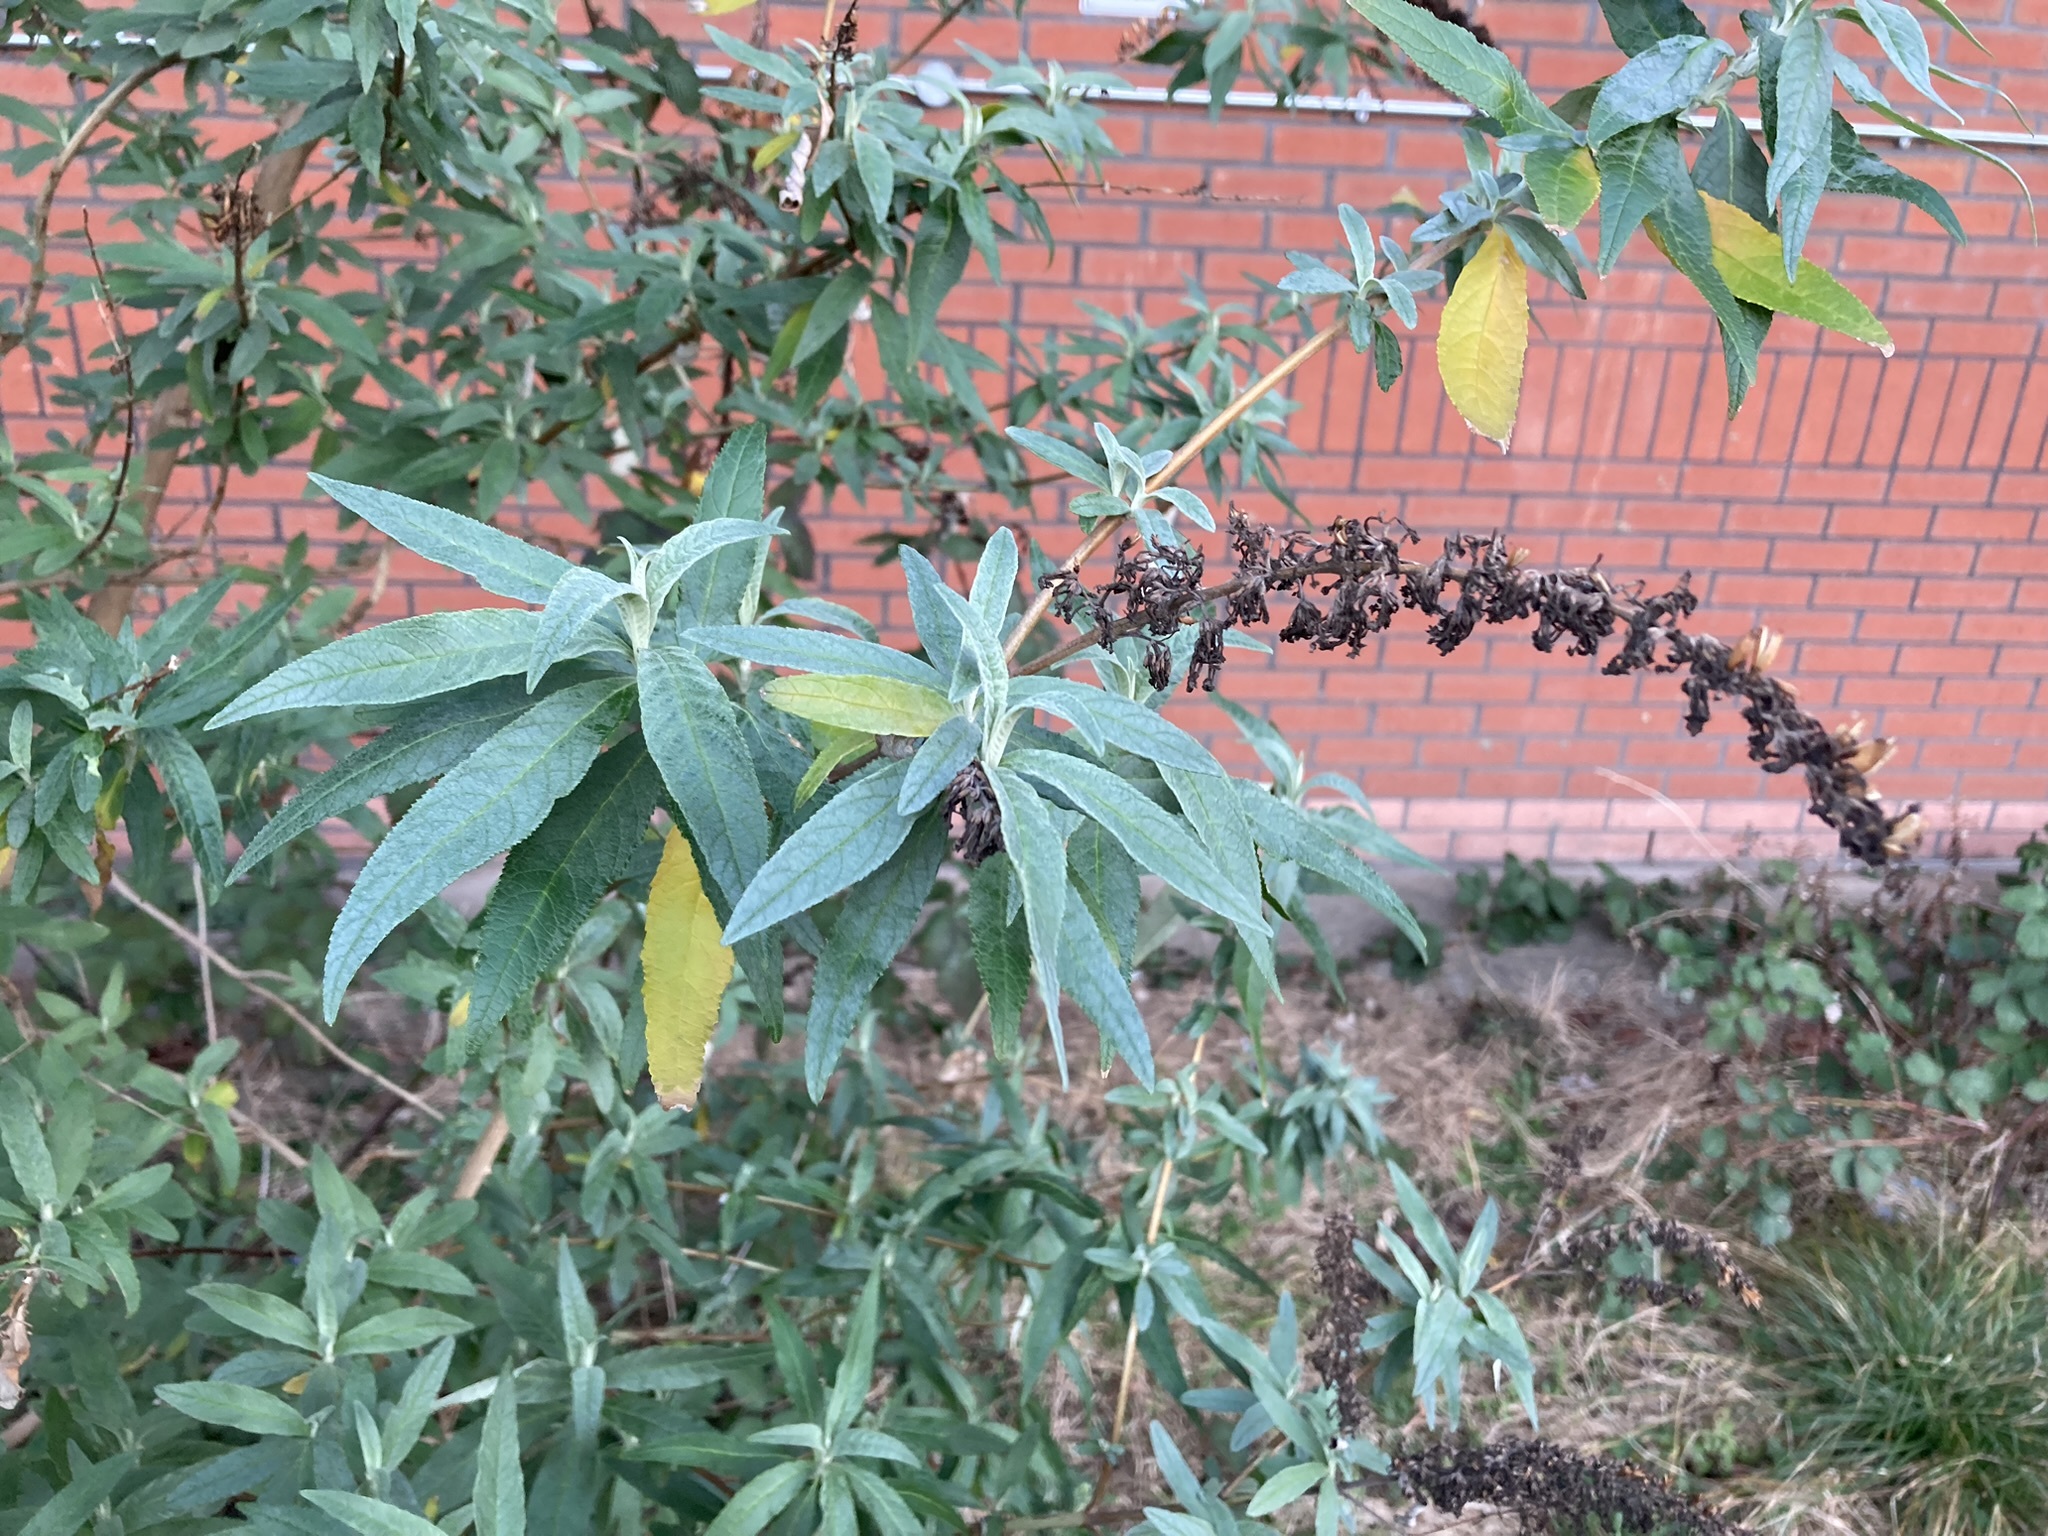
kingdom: Plantae
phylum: Tracheophyta
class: Magnoliopsida
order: Lamiales
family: Scrophulariaceae
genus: Buddleja
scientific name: Buddleja davidii
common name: Butterfly-bush
